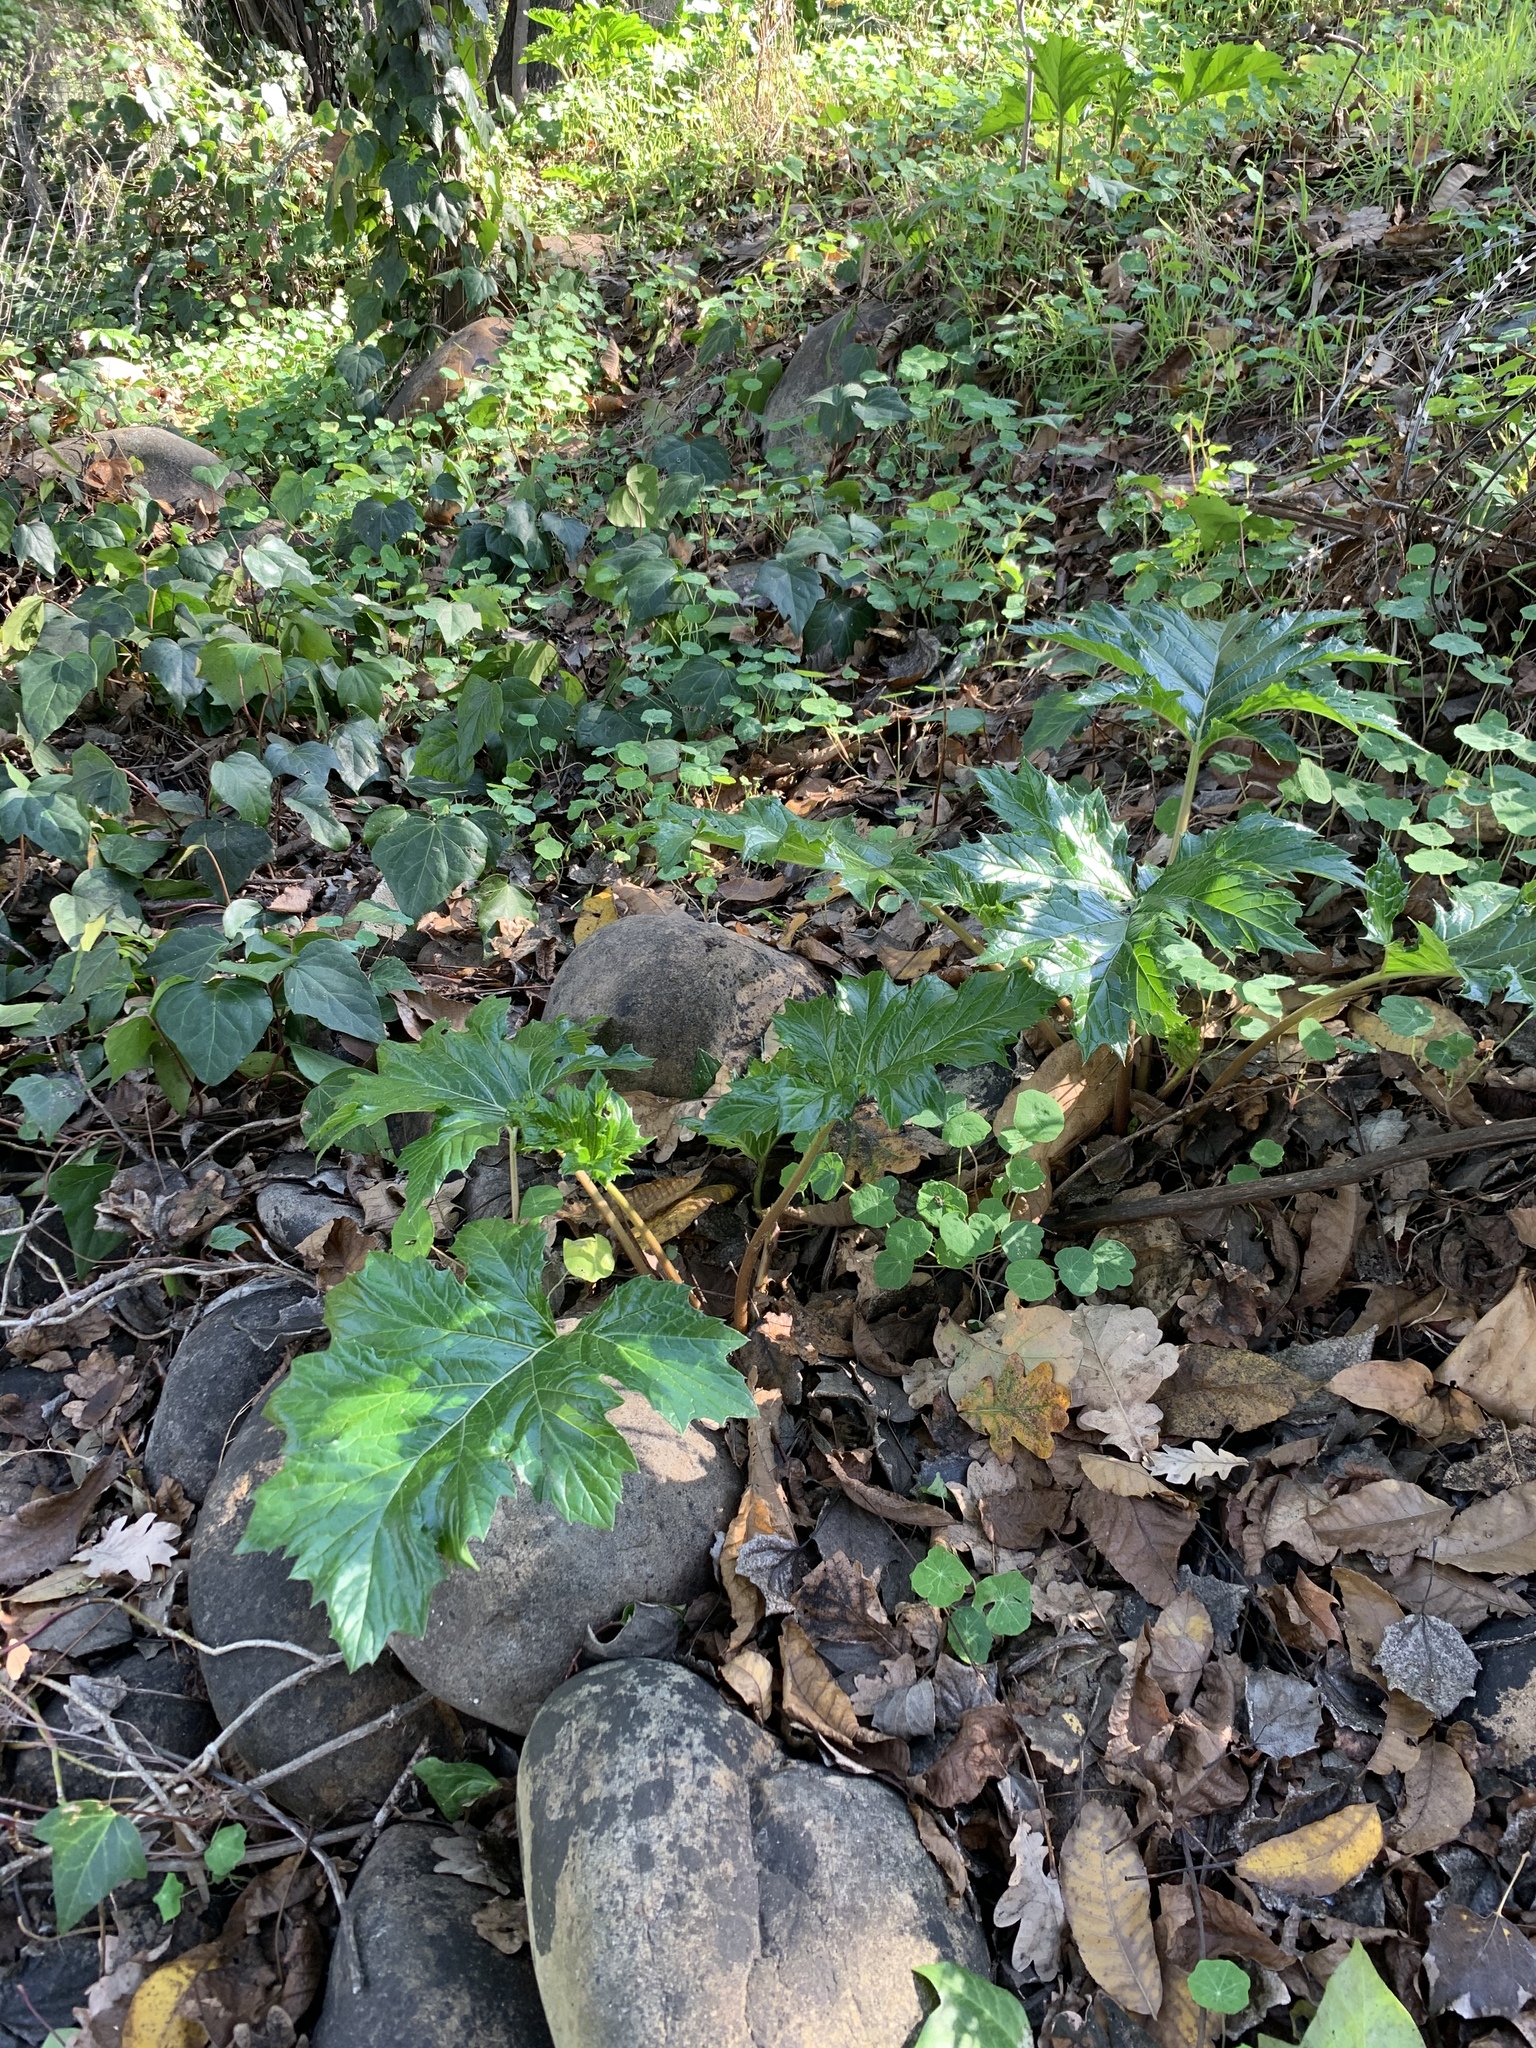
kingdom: Plantae
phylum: Tracheophyta
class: Magnoliopsida
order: Lamiales
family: Acanthaceae
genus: Acanthus
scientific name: Acanthus mollis
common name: Bear's-breech
